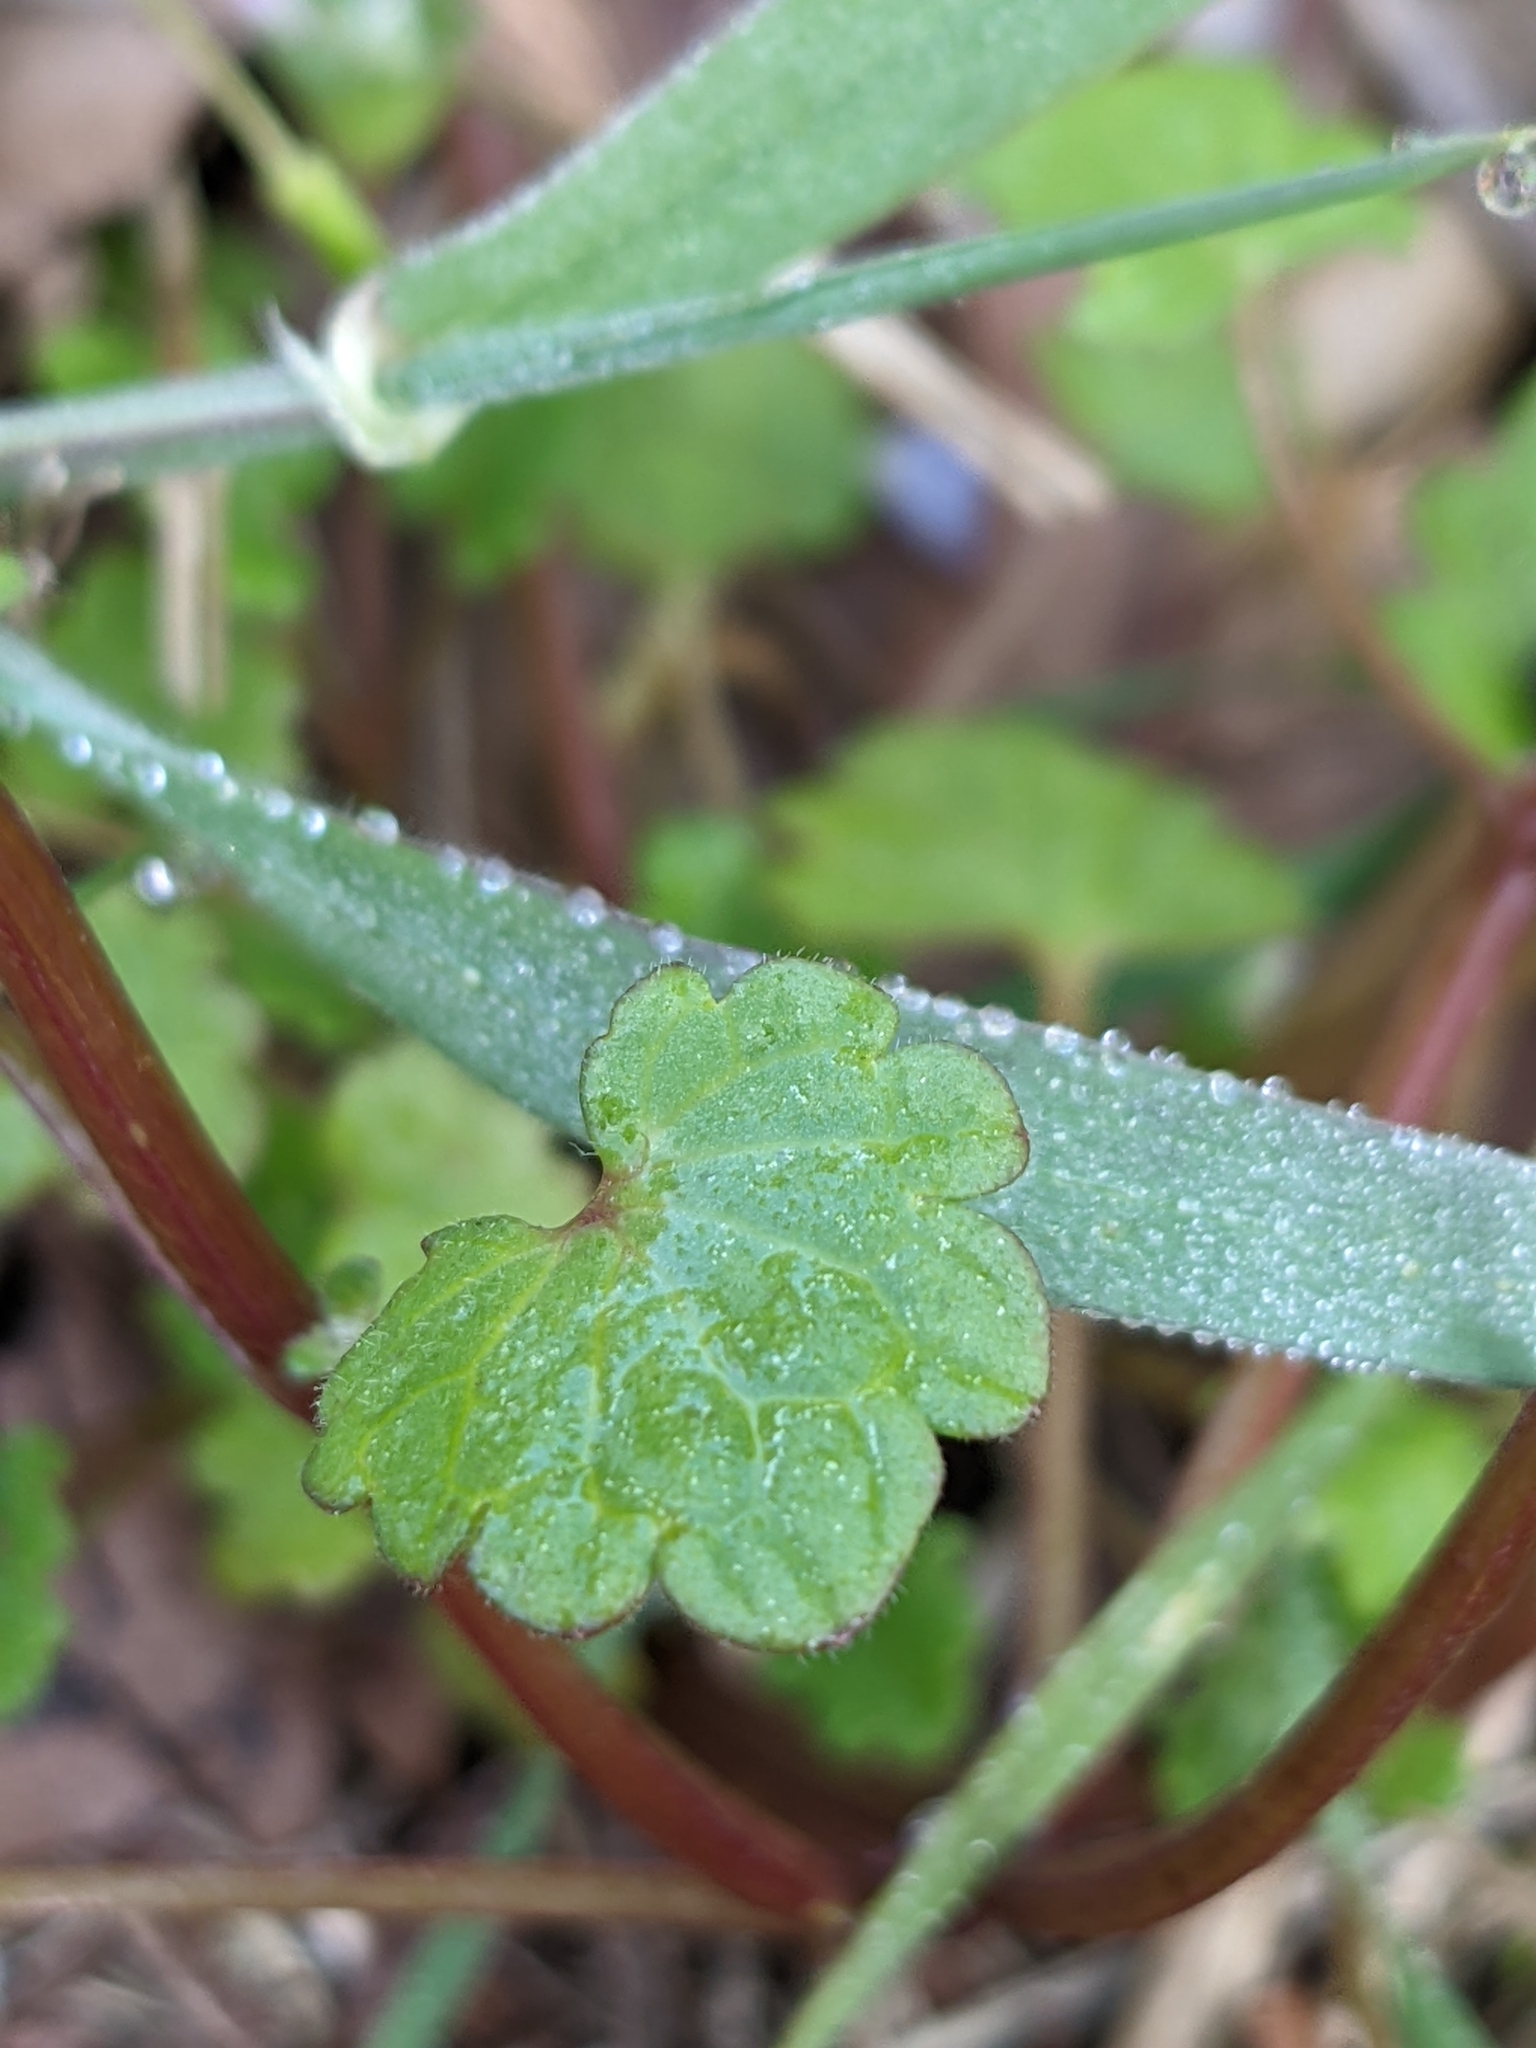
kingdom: Plantae
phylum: Tracheophyta
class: Magnoliopsida
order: Lamiales
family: Lamiaceae
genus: Lamium
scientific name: Lamium amplexicaule
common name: Henbit dead-nettle
